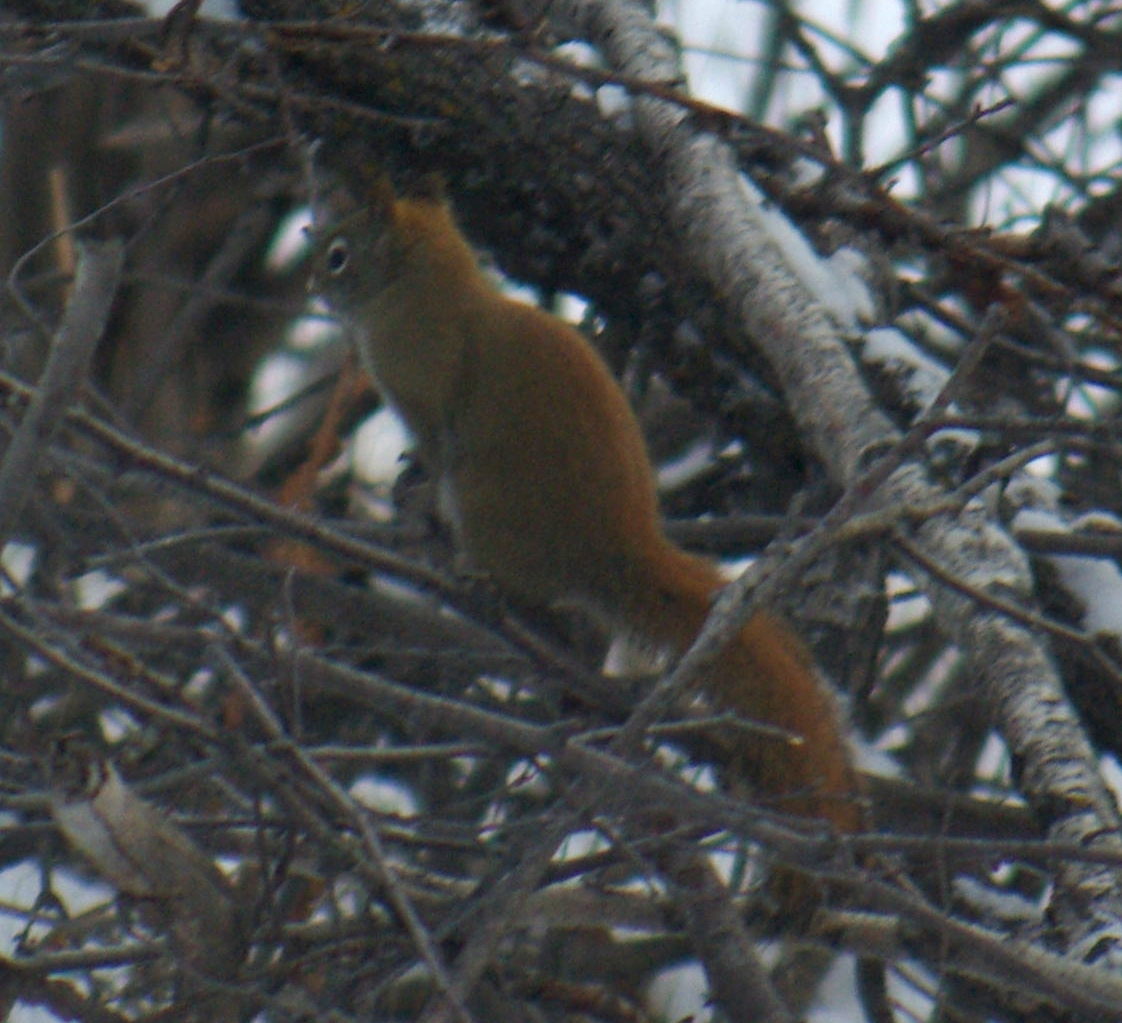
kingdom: Animalia
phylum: Chordata
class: Mammalia
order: Rodentia
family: Sciuridae
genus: Tamiasciurus
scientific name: Tamiasciurus hudsonicus
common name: Red squirrel
